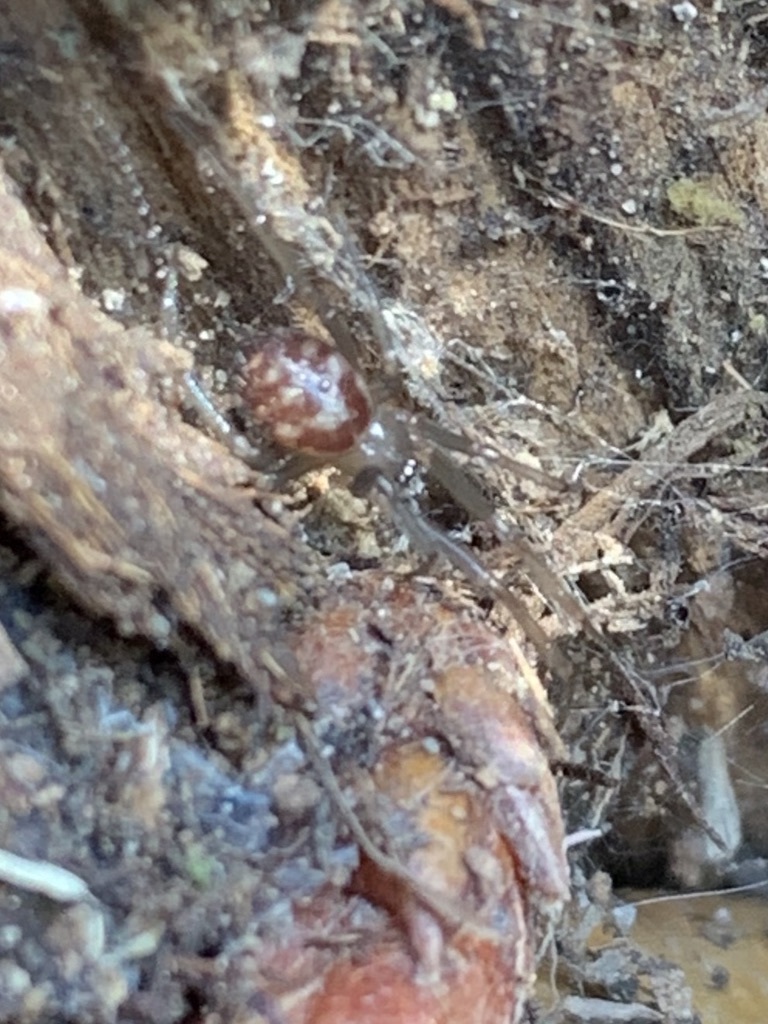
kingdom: Animalia
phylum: Arthropoda
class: Arachnida
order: Araneae
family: Theridiidae
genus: Steatoda
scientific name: Steatoda grossa
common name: False black widow
